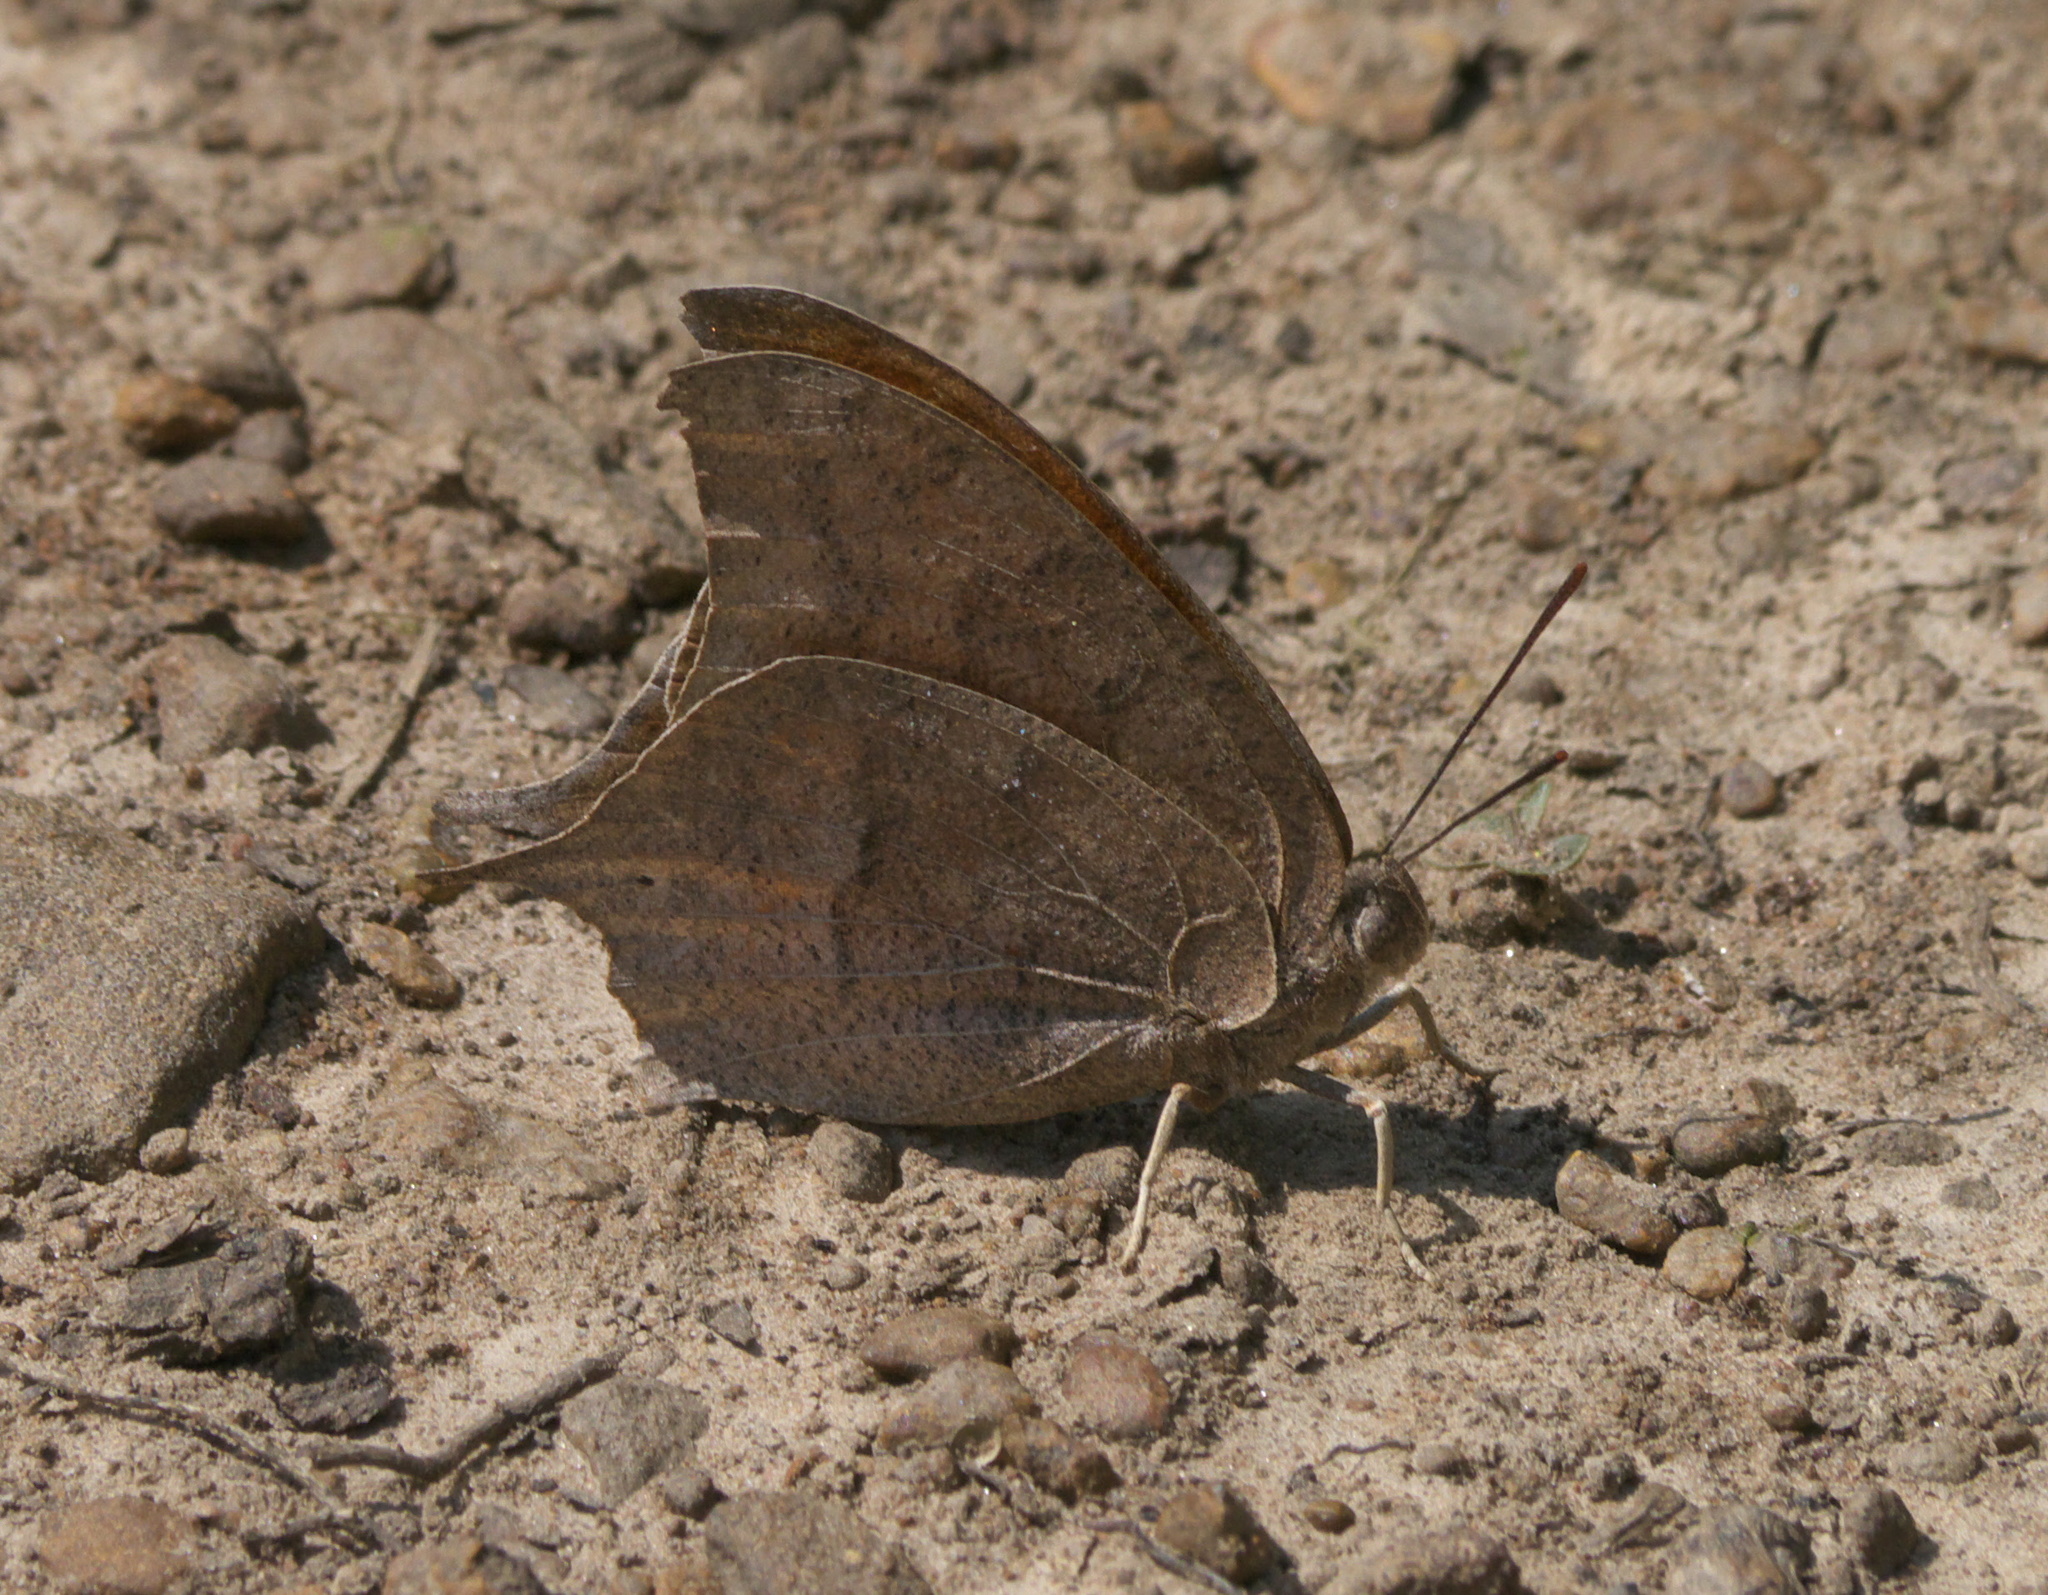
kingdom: Animalia
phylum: Arthropoda
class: Insecta
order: Lepidoptera
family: Nymphalidae
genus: Anaea
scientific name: Anaea andria
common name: Goatweed leafwing
